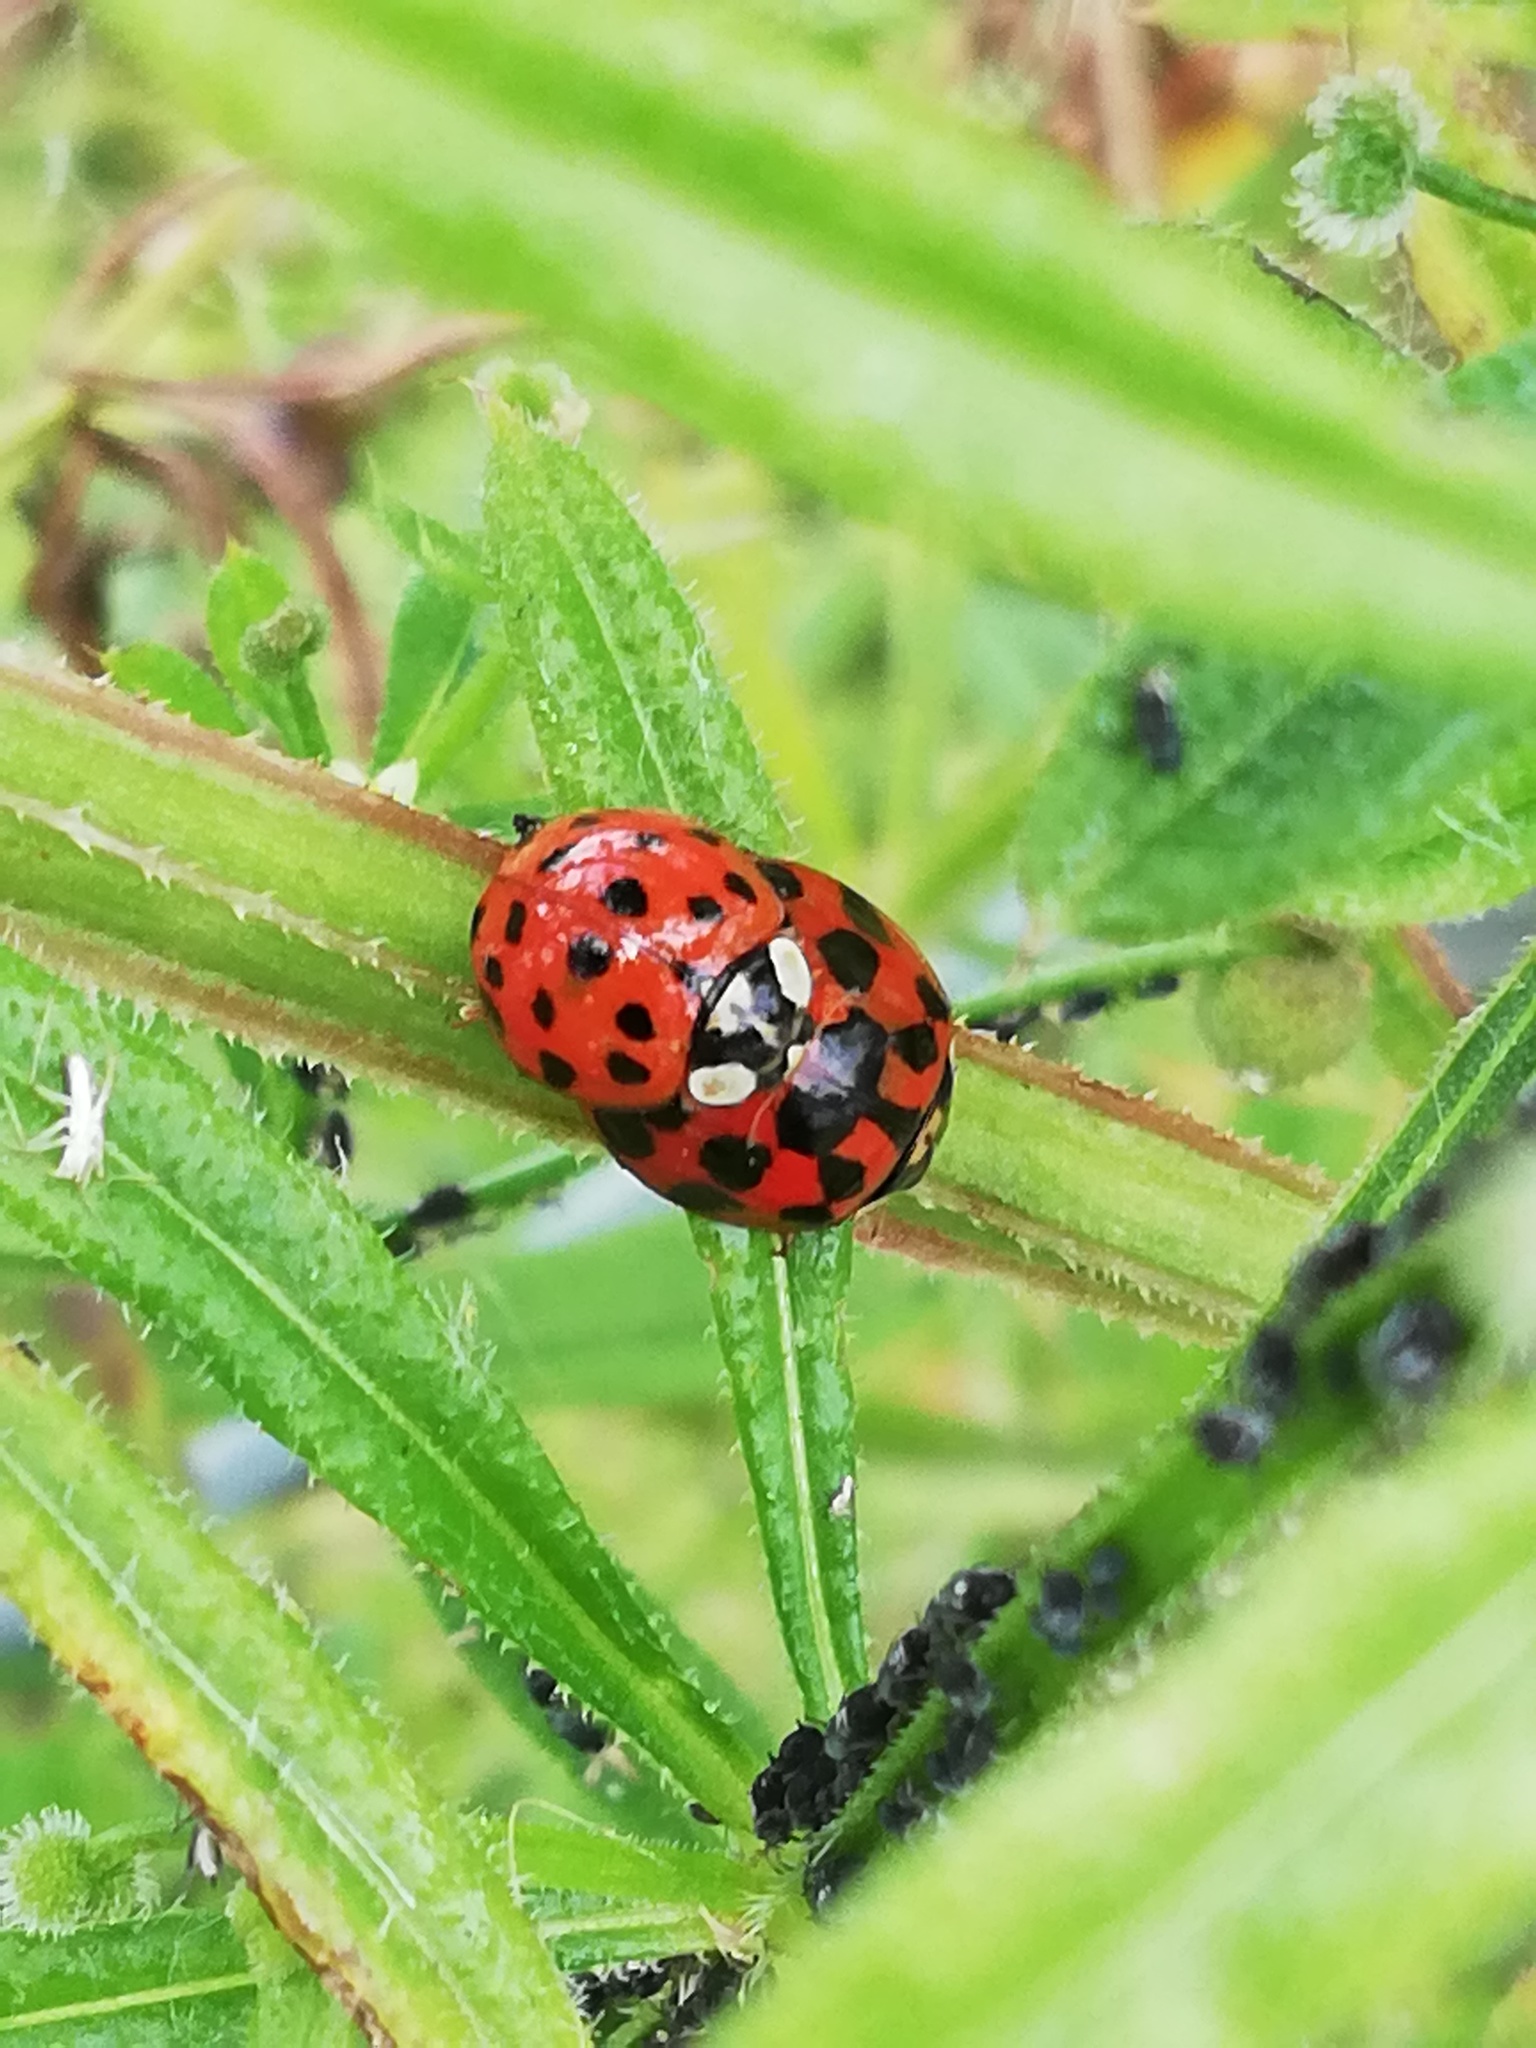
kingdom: Animalia
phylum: Arthropoda
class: Insecta
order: Coleoptera
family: Coccinellidae
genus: Harmonia
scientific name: Harmonia axyridis
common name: Harlequin ladybird
